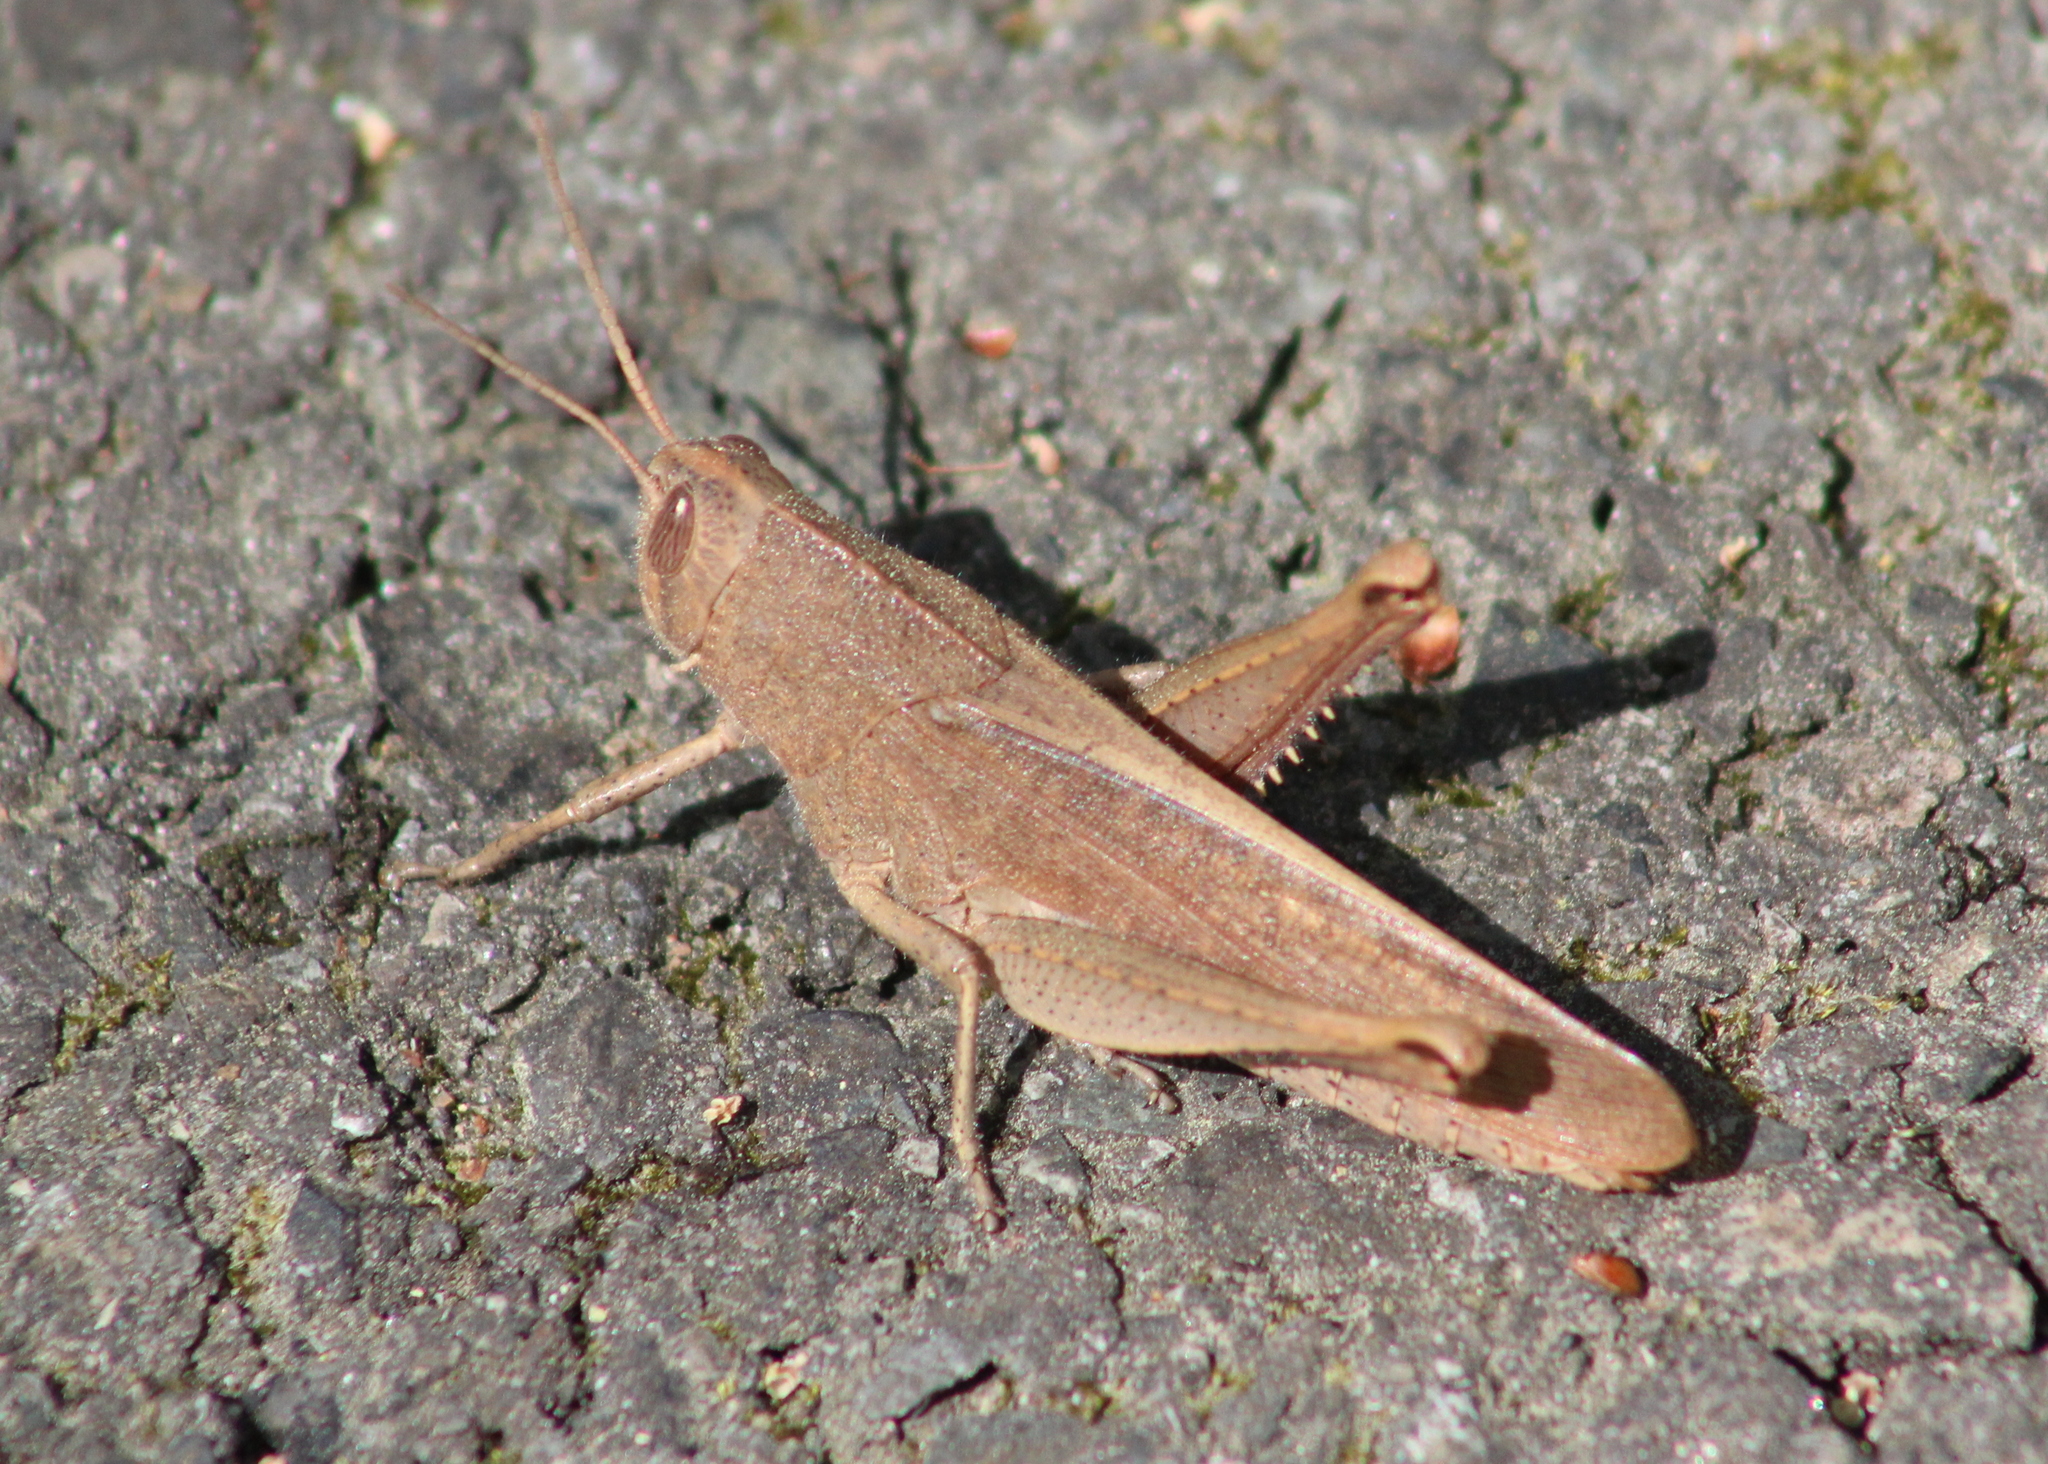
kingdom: Animalia
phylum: Arthropoda
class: Insecta
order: Orthoptera
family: Acrididae
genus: Schistocerca
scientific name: Schistocerca damnifica
